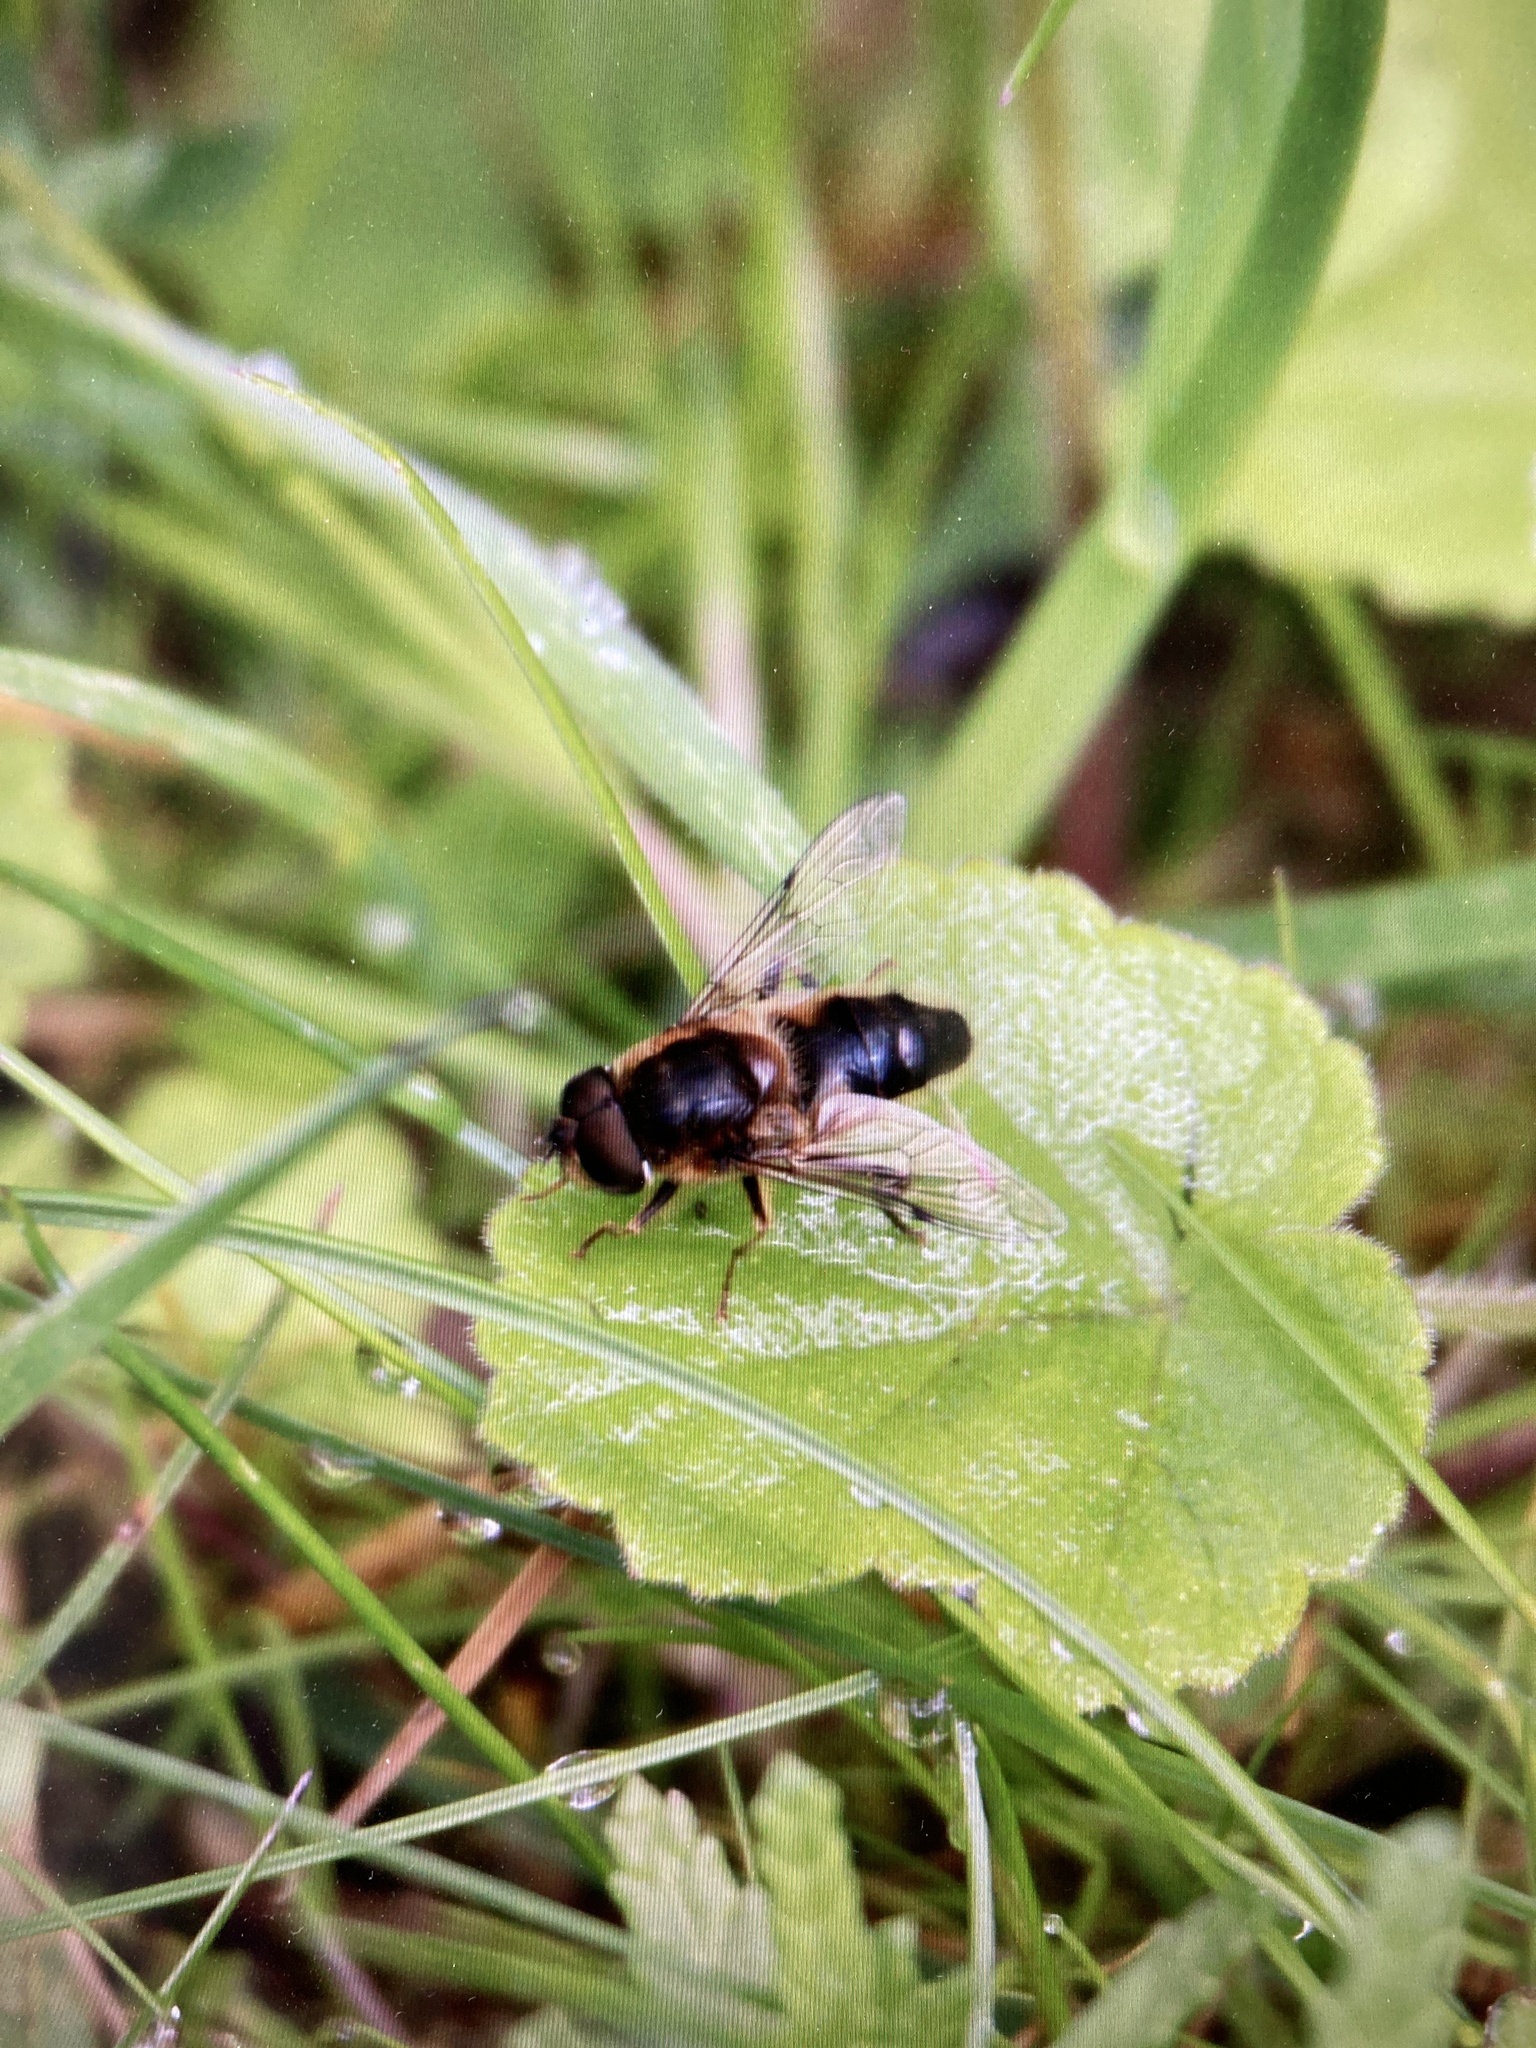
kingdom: Animalia
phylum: Arthropoda
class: Insecta
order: Diptera
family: Syrphidae
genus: Eristalis
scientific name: Eristalis pertinax
